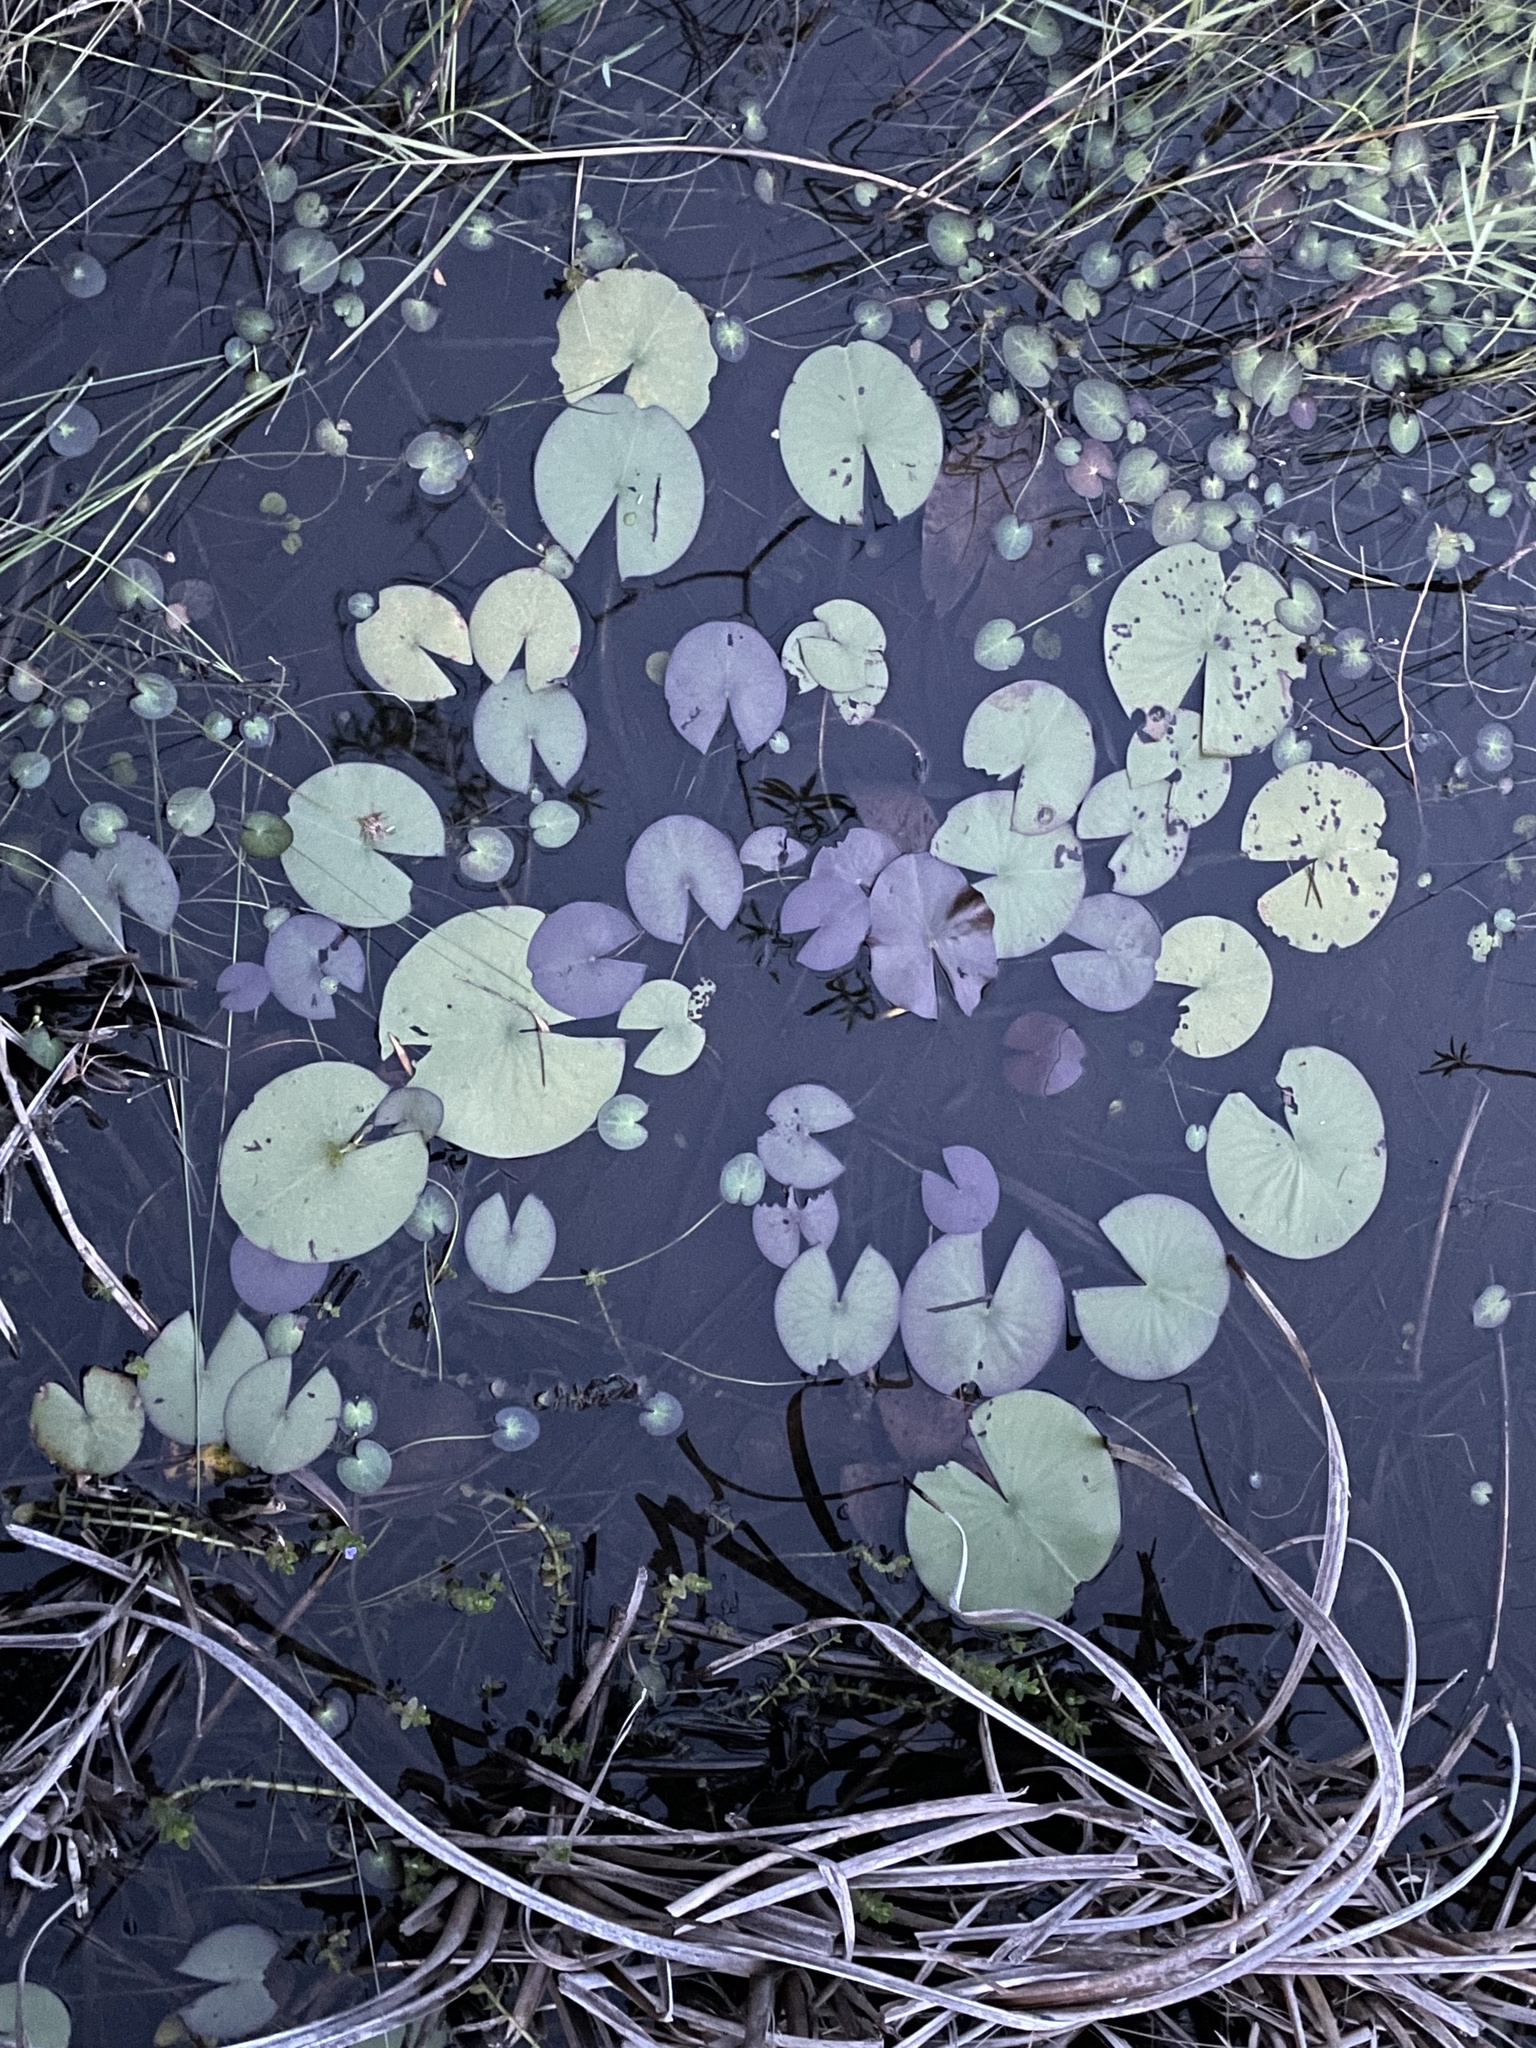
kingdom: Plantae
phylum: Tracheophyta
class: Magnoliopsida
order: Nymphaeales
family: Nymphaeaceae
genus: Nymphaea
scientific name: Nymphaea odorata
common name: Fragrant water-lily
